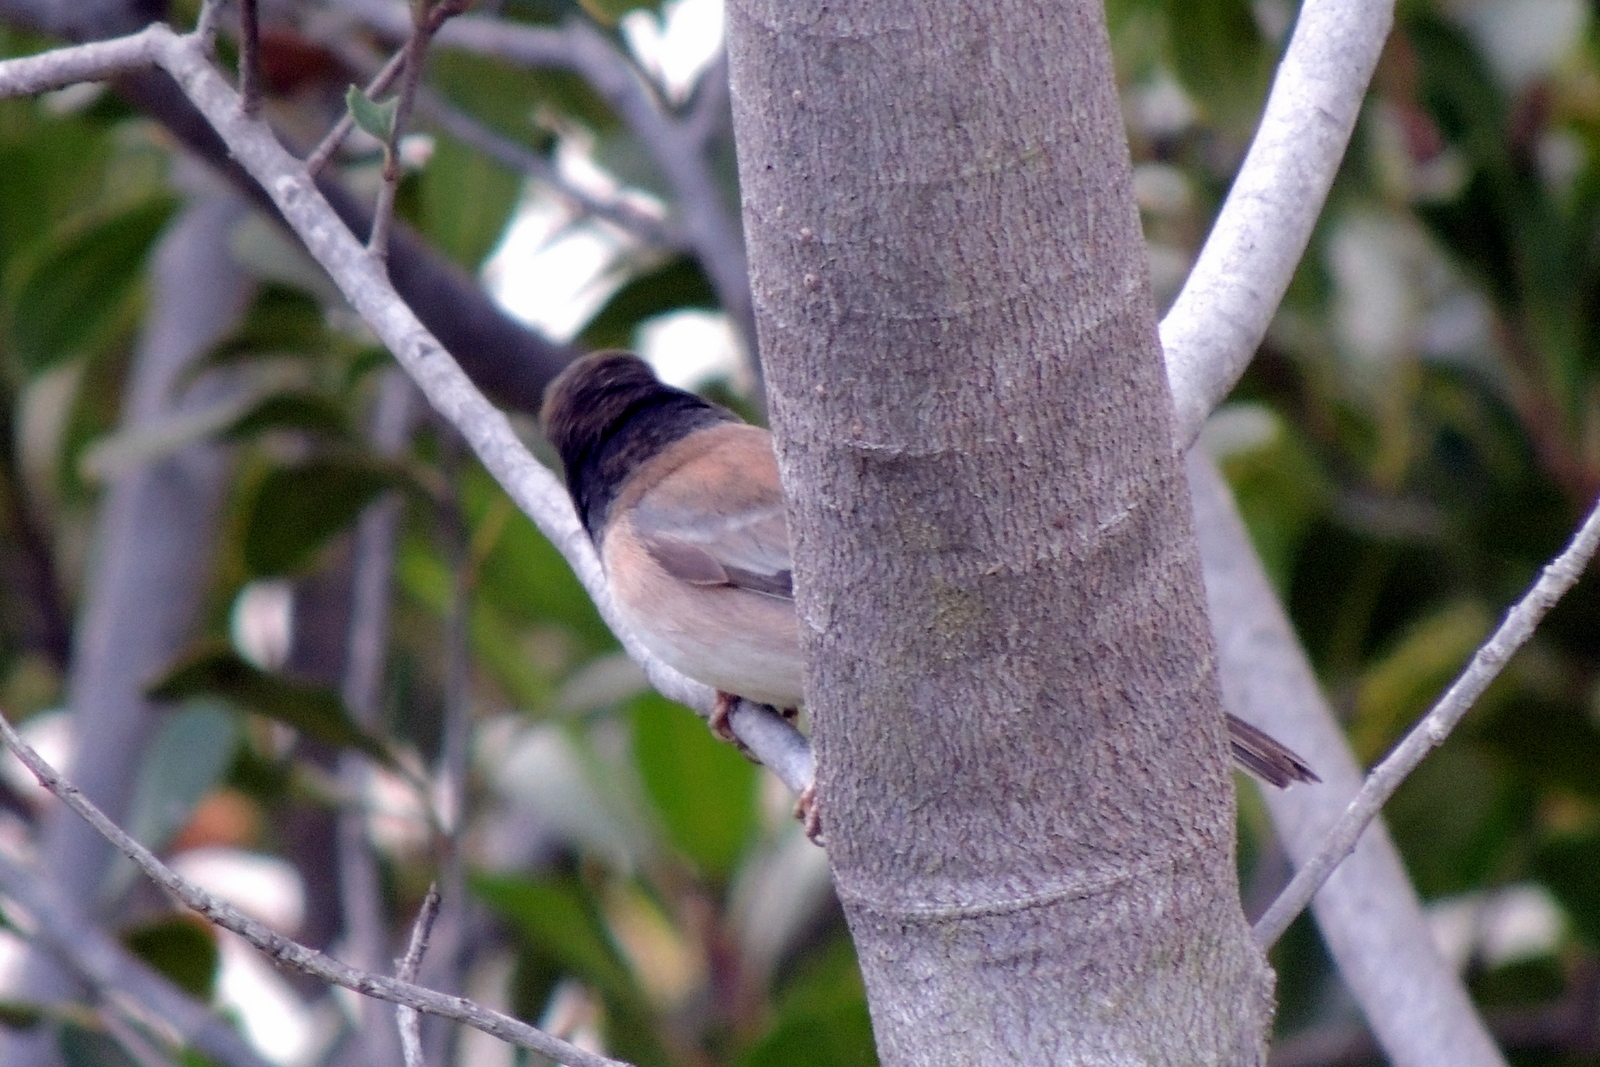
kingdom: Animalia
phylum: Chordata
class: Aves
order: Passeriformes
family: Passerellidae
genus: Junco
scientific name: Junco hyemalis
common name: Dark-eyed junco
